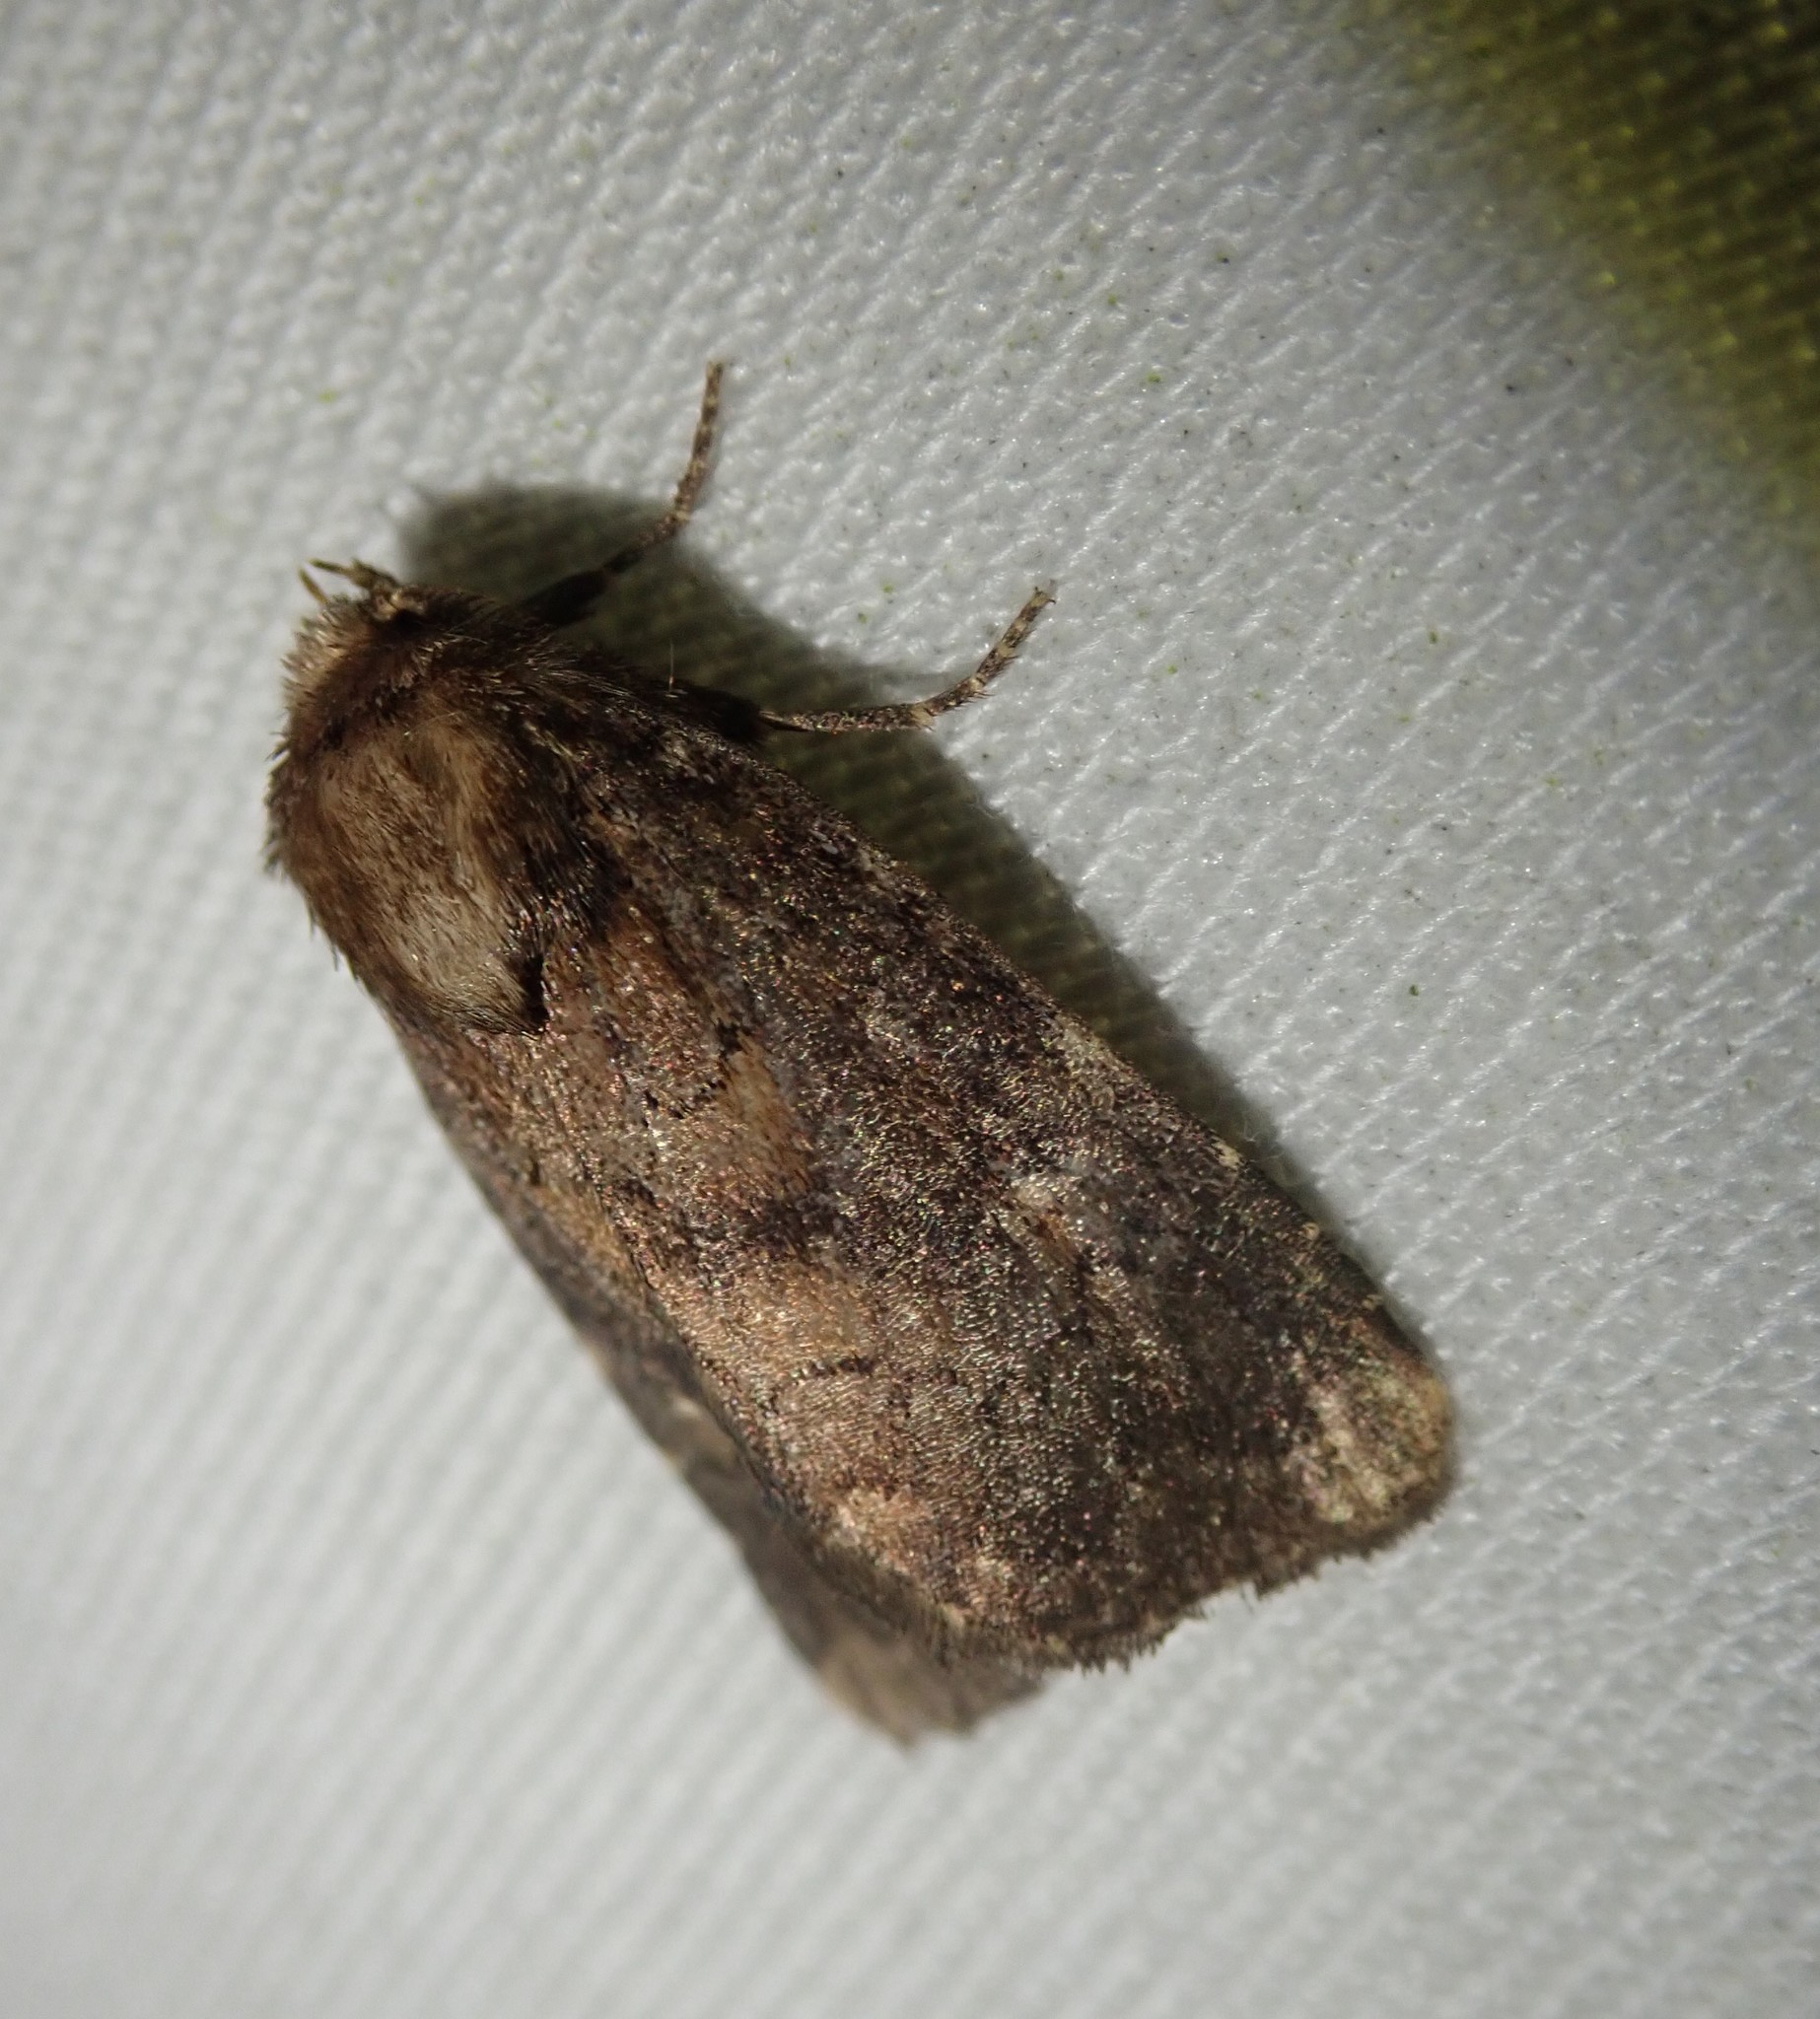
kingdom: Animalia
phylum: Arthropoda
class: Insecta
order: Lepidoptera
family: Noctuidae
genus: Charanyca
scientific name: Charanyca ferruginea
